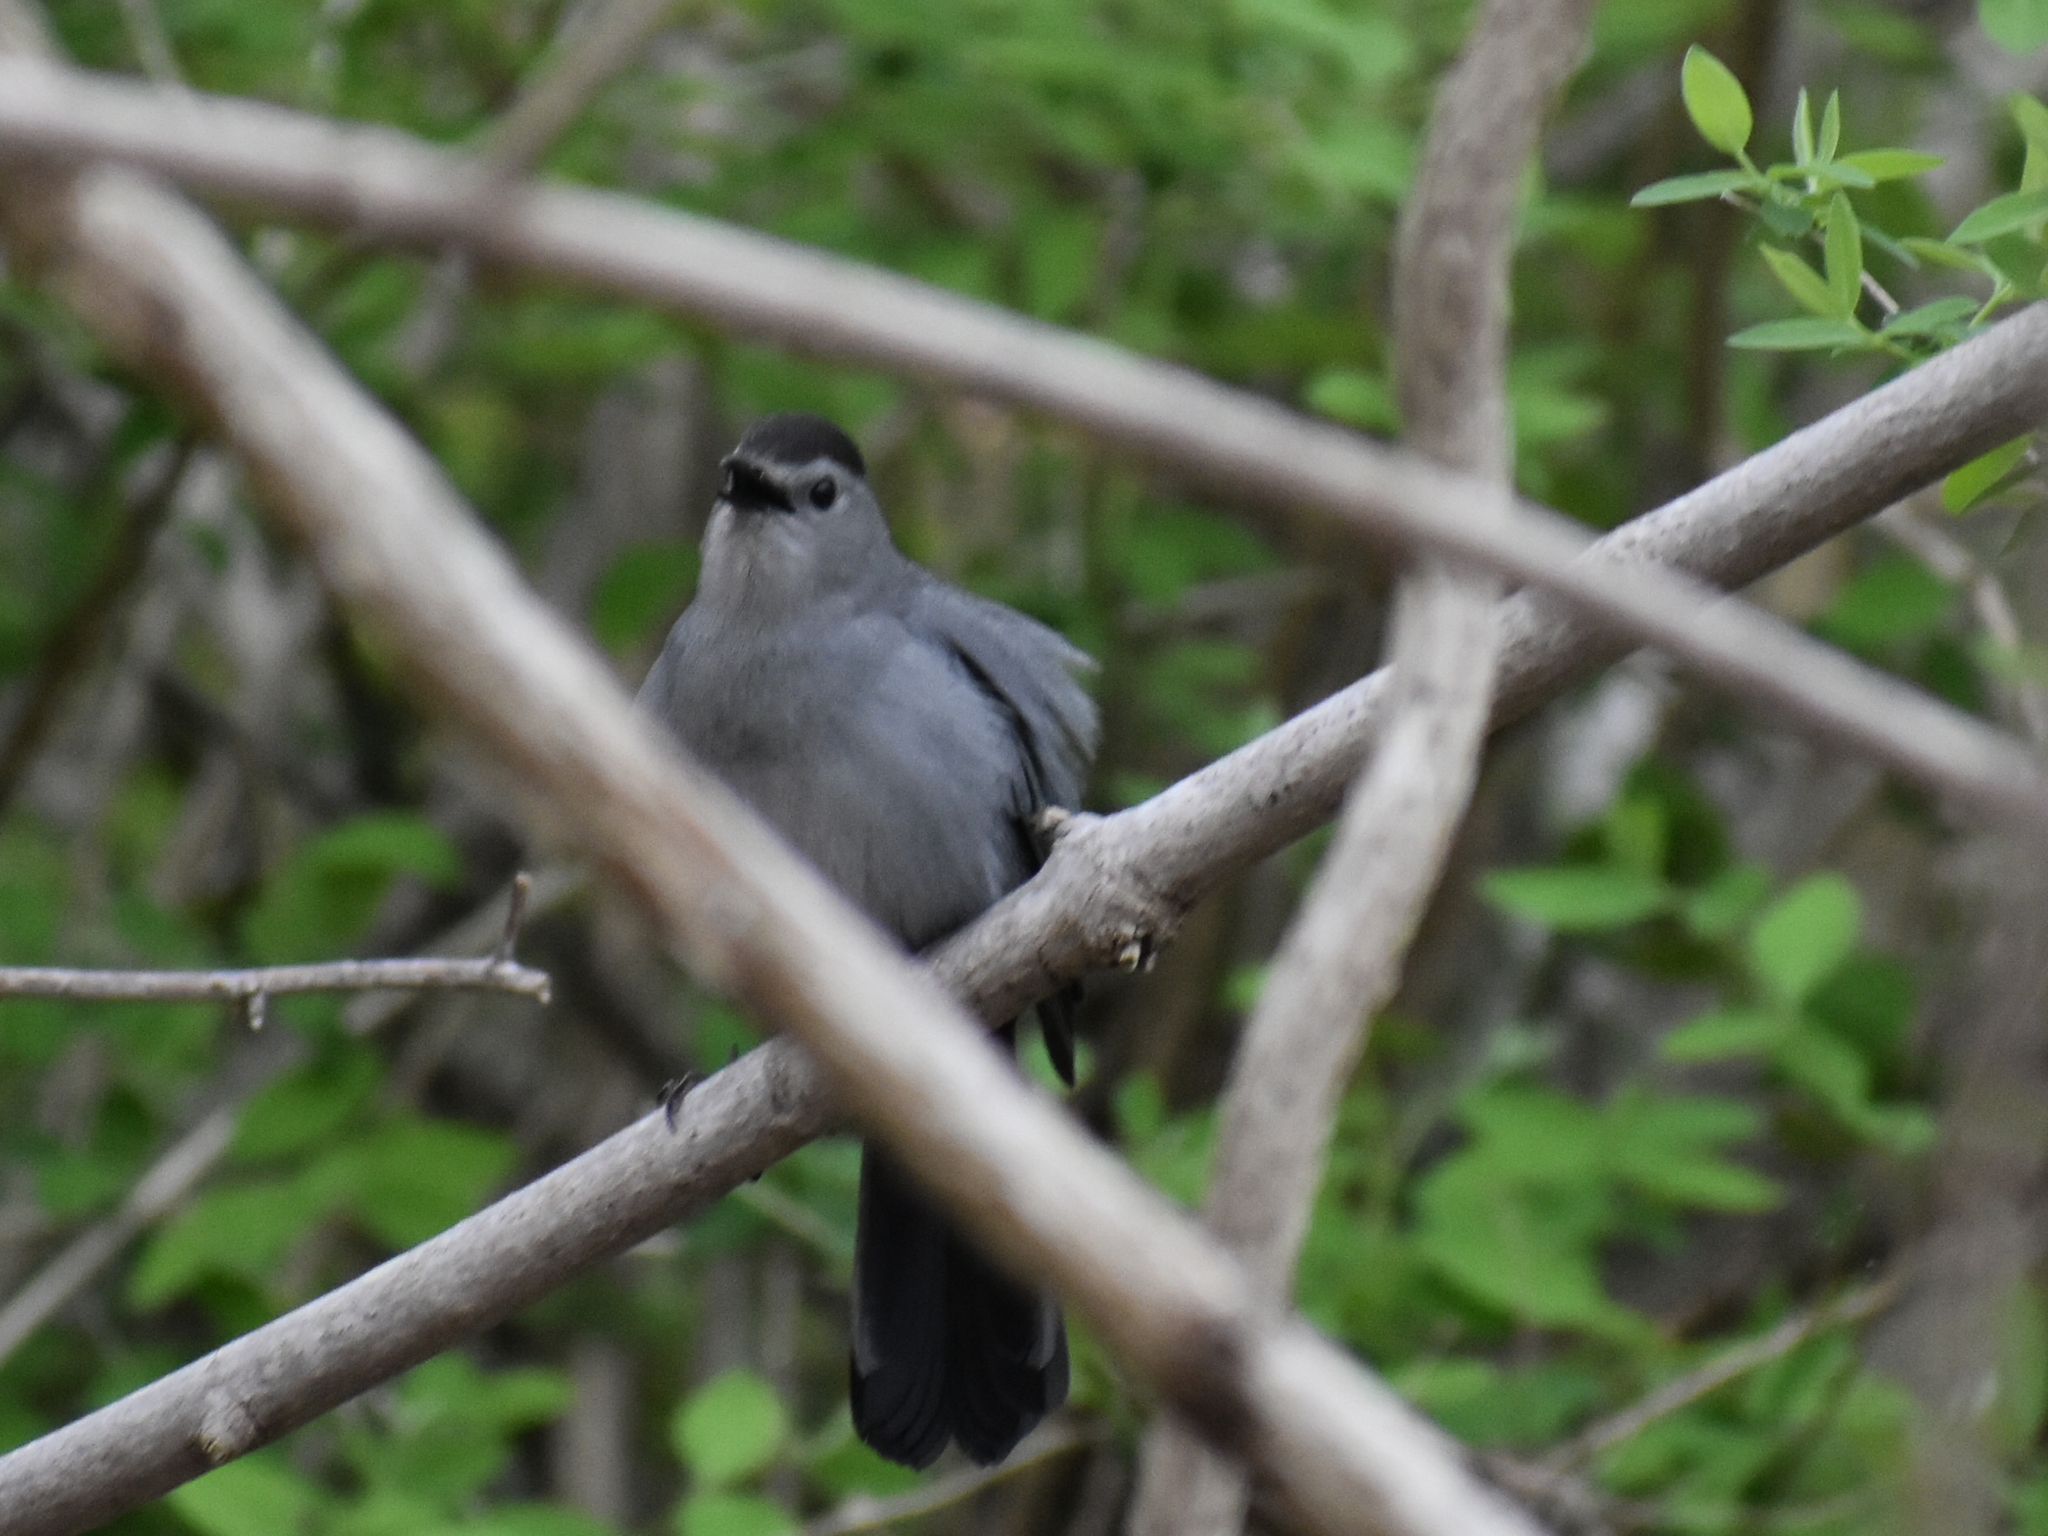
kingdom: Animalia
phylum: Chordata
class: Aves
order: Passeriformes
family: Mimidae
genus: Dumetella
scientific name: Dumetella carolinensis
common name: Gray catbird
